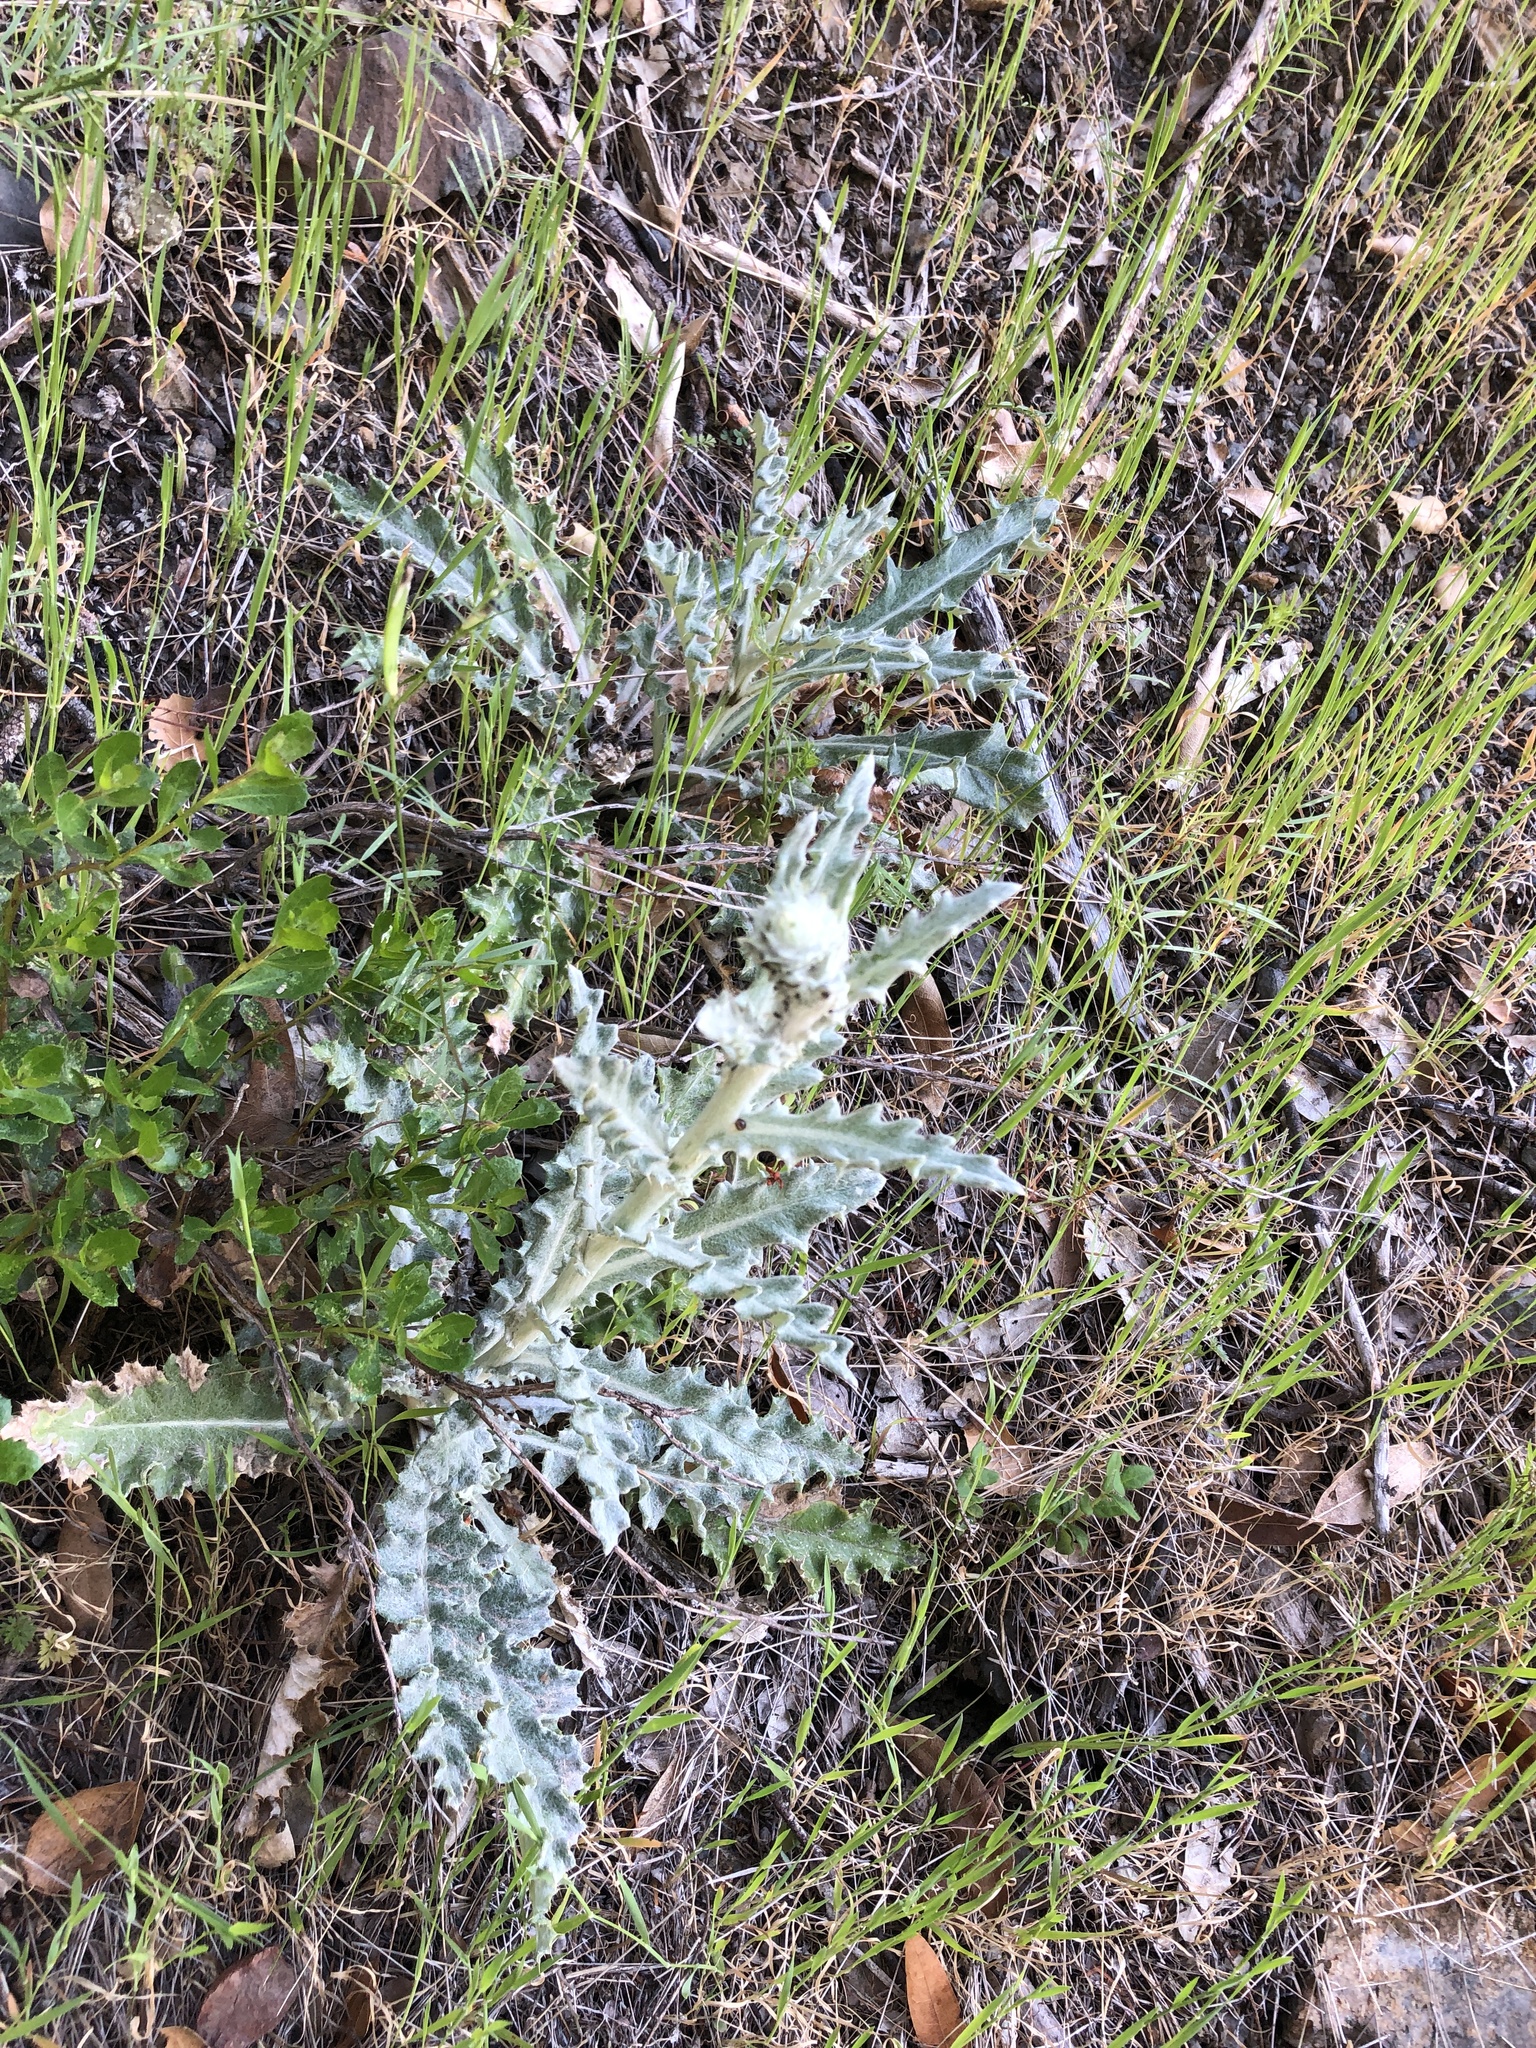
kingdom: Plantae
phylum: Tracheophyta
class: Magnoliopsida
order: Asterales
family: Asteraceae
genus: Cirsium
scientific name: Cirsium occidentale
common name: Western thistle
